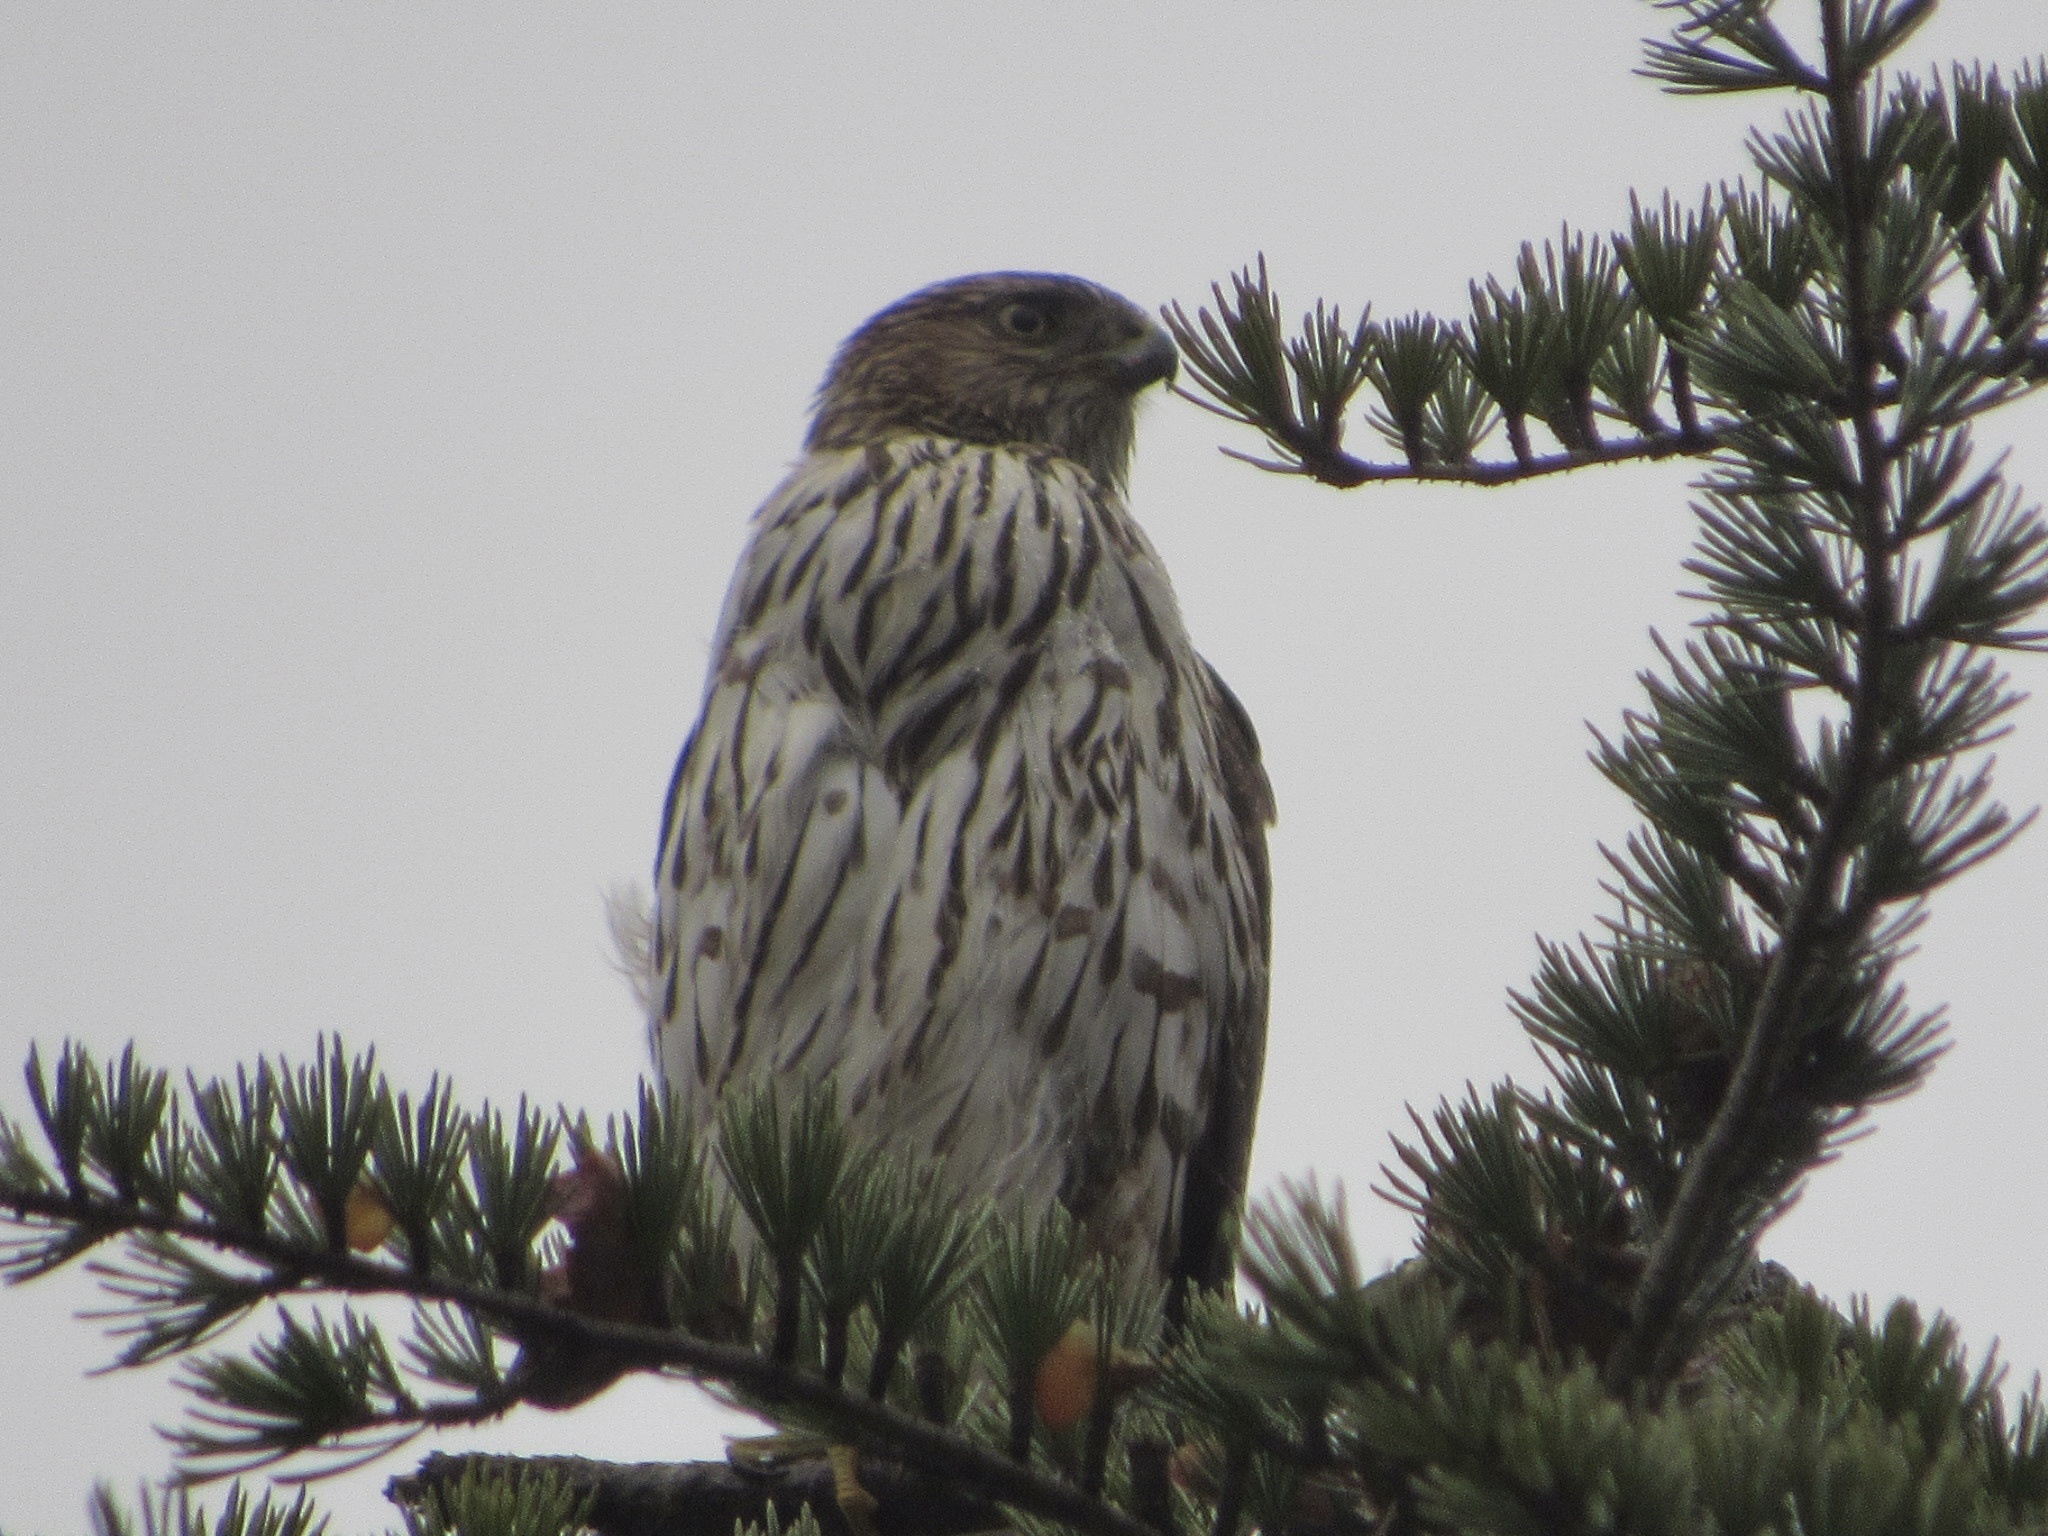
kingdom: Animalia
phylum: Chordata
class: Aves
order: Accipitriformes
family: Accipitridae
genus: Accipiter
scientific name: Accipiter cooperii
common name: Cooper's hawk
